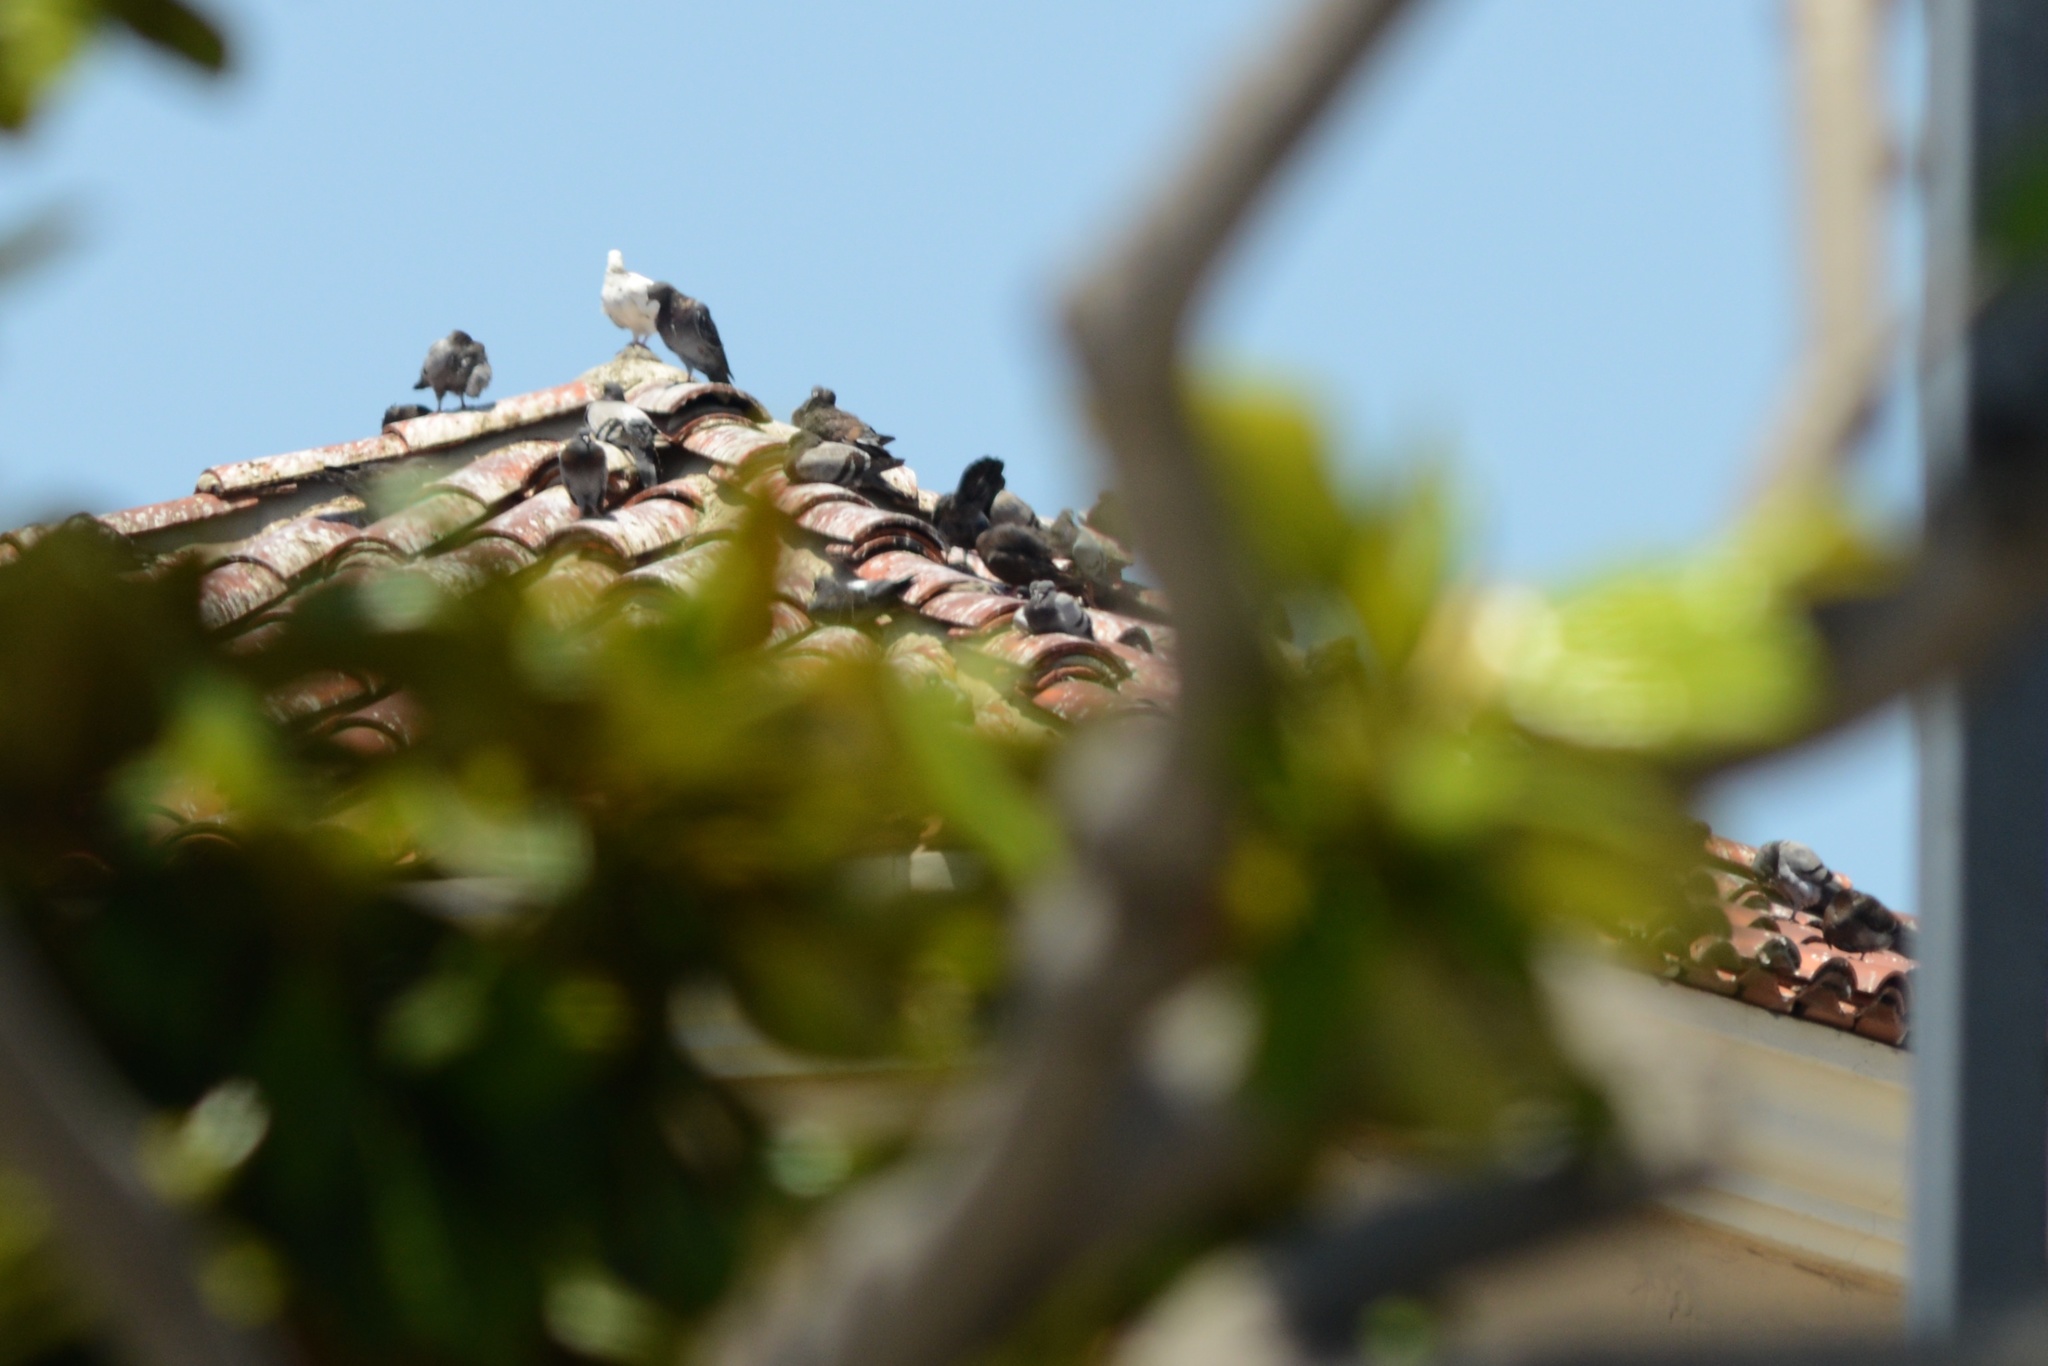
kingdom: Animalia
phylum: Chordata
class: Aves
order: Columbiformes
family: Columbidae
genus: Columba
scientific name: Columba livia
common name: Rock pigeon
